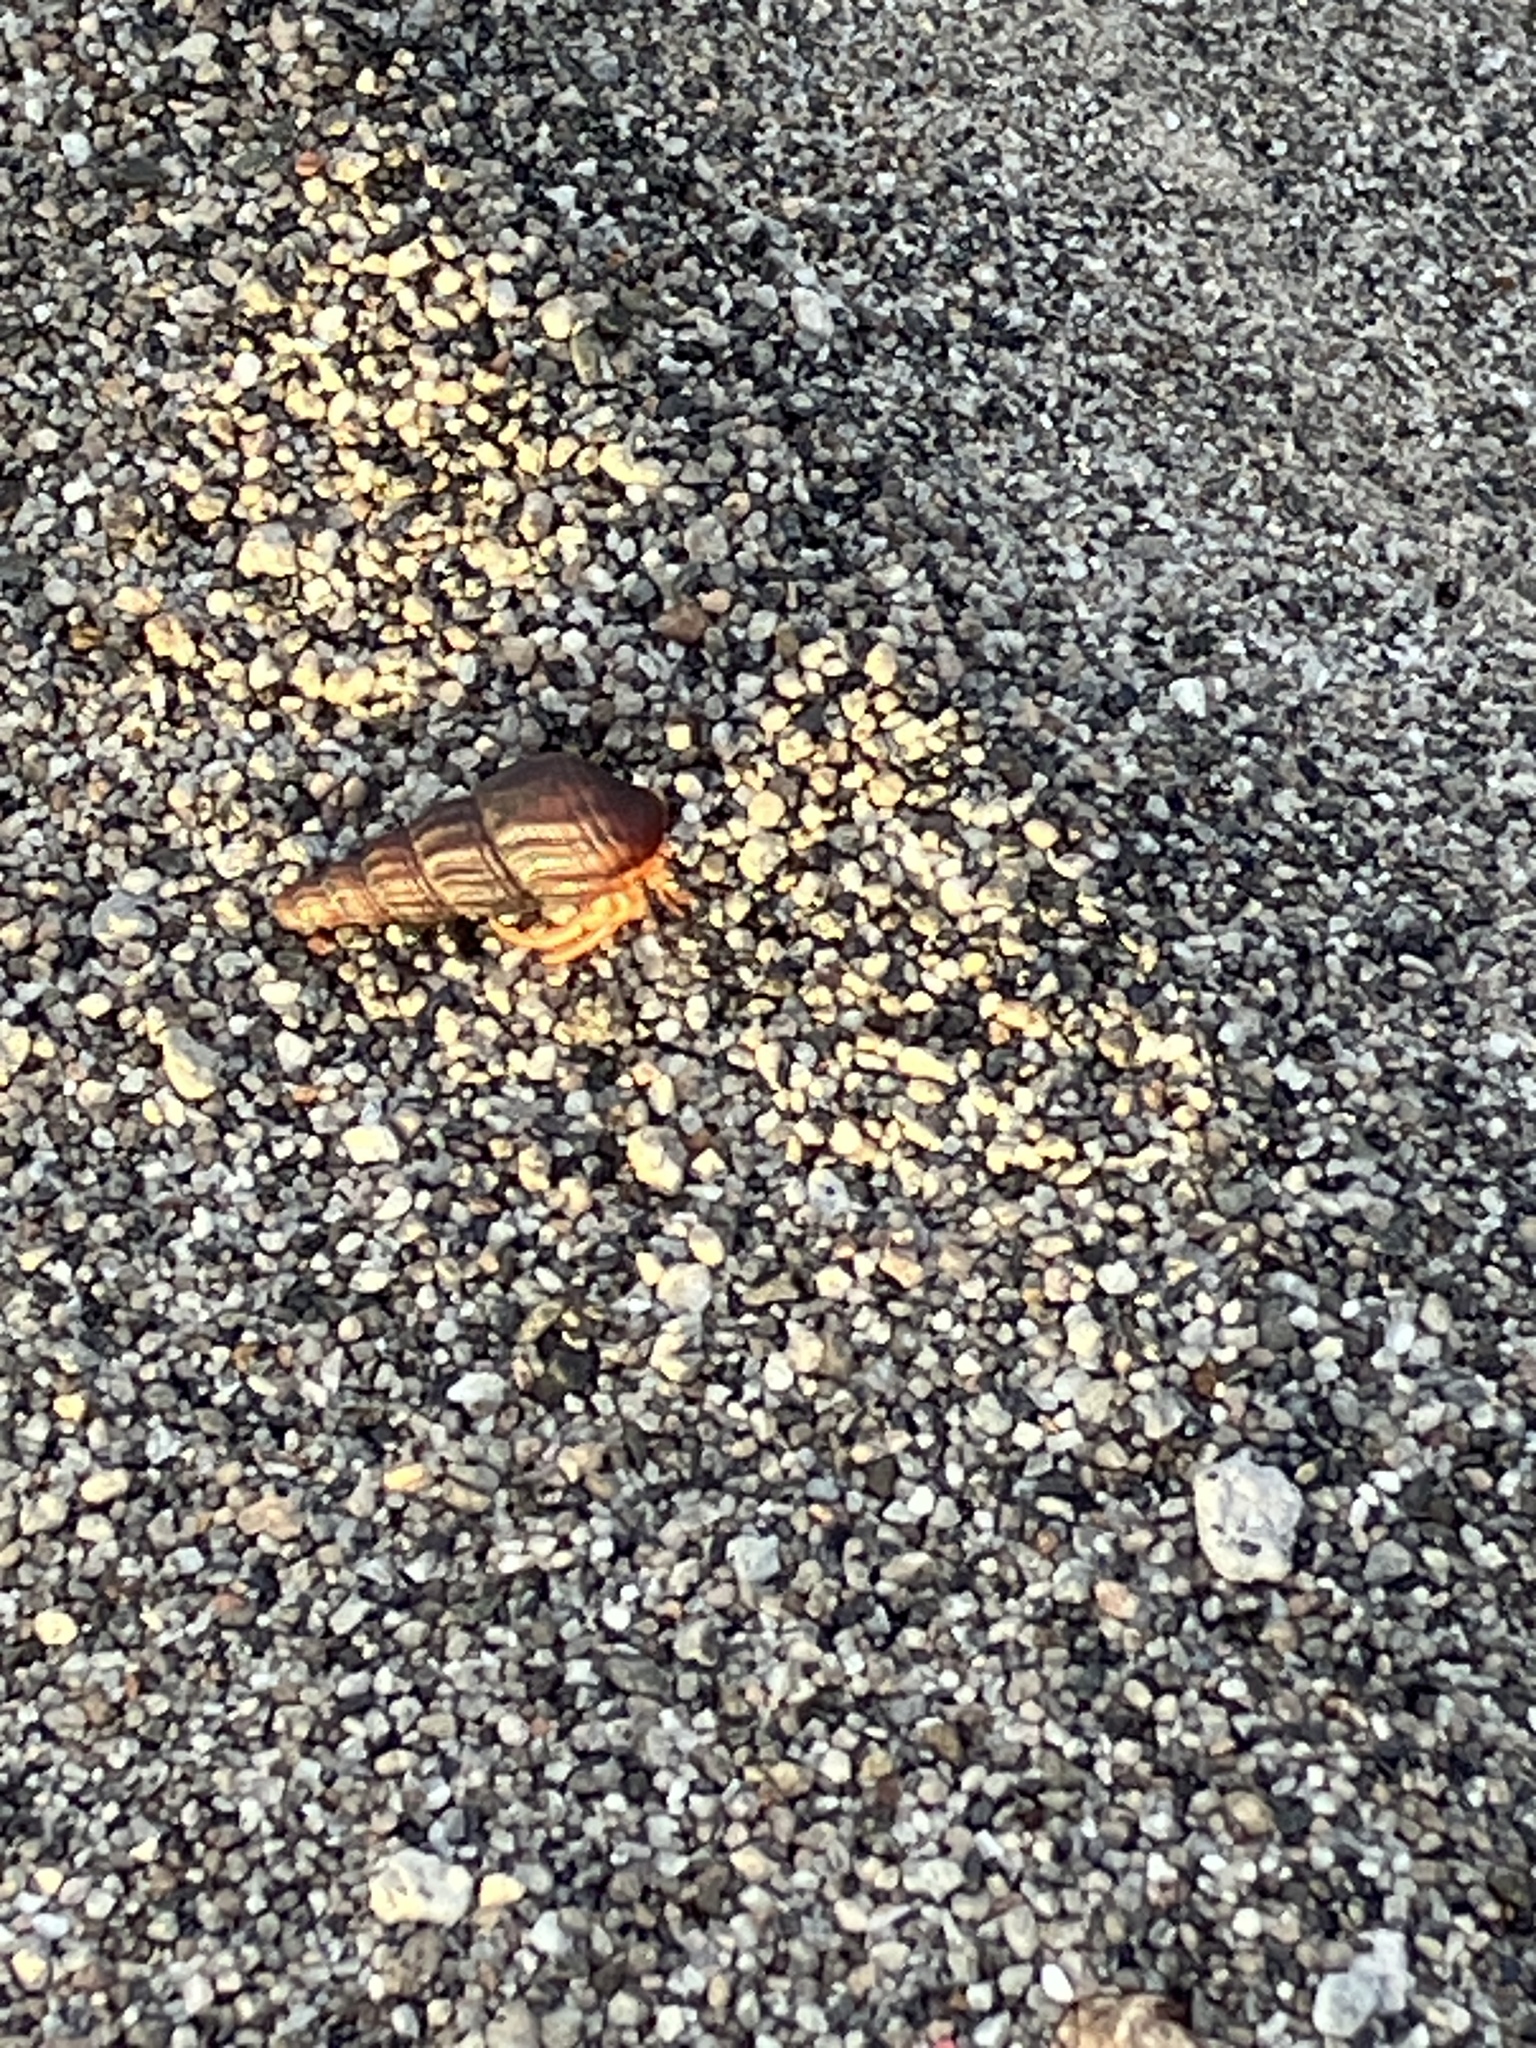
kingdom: Animalia
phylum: Arthropoda
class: Malacostraca
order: Decapoda
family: Coenobitidae
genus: Coenobita
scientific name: Coenobita clypeatus
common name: Caribbean hermit crab
